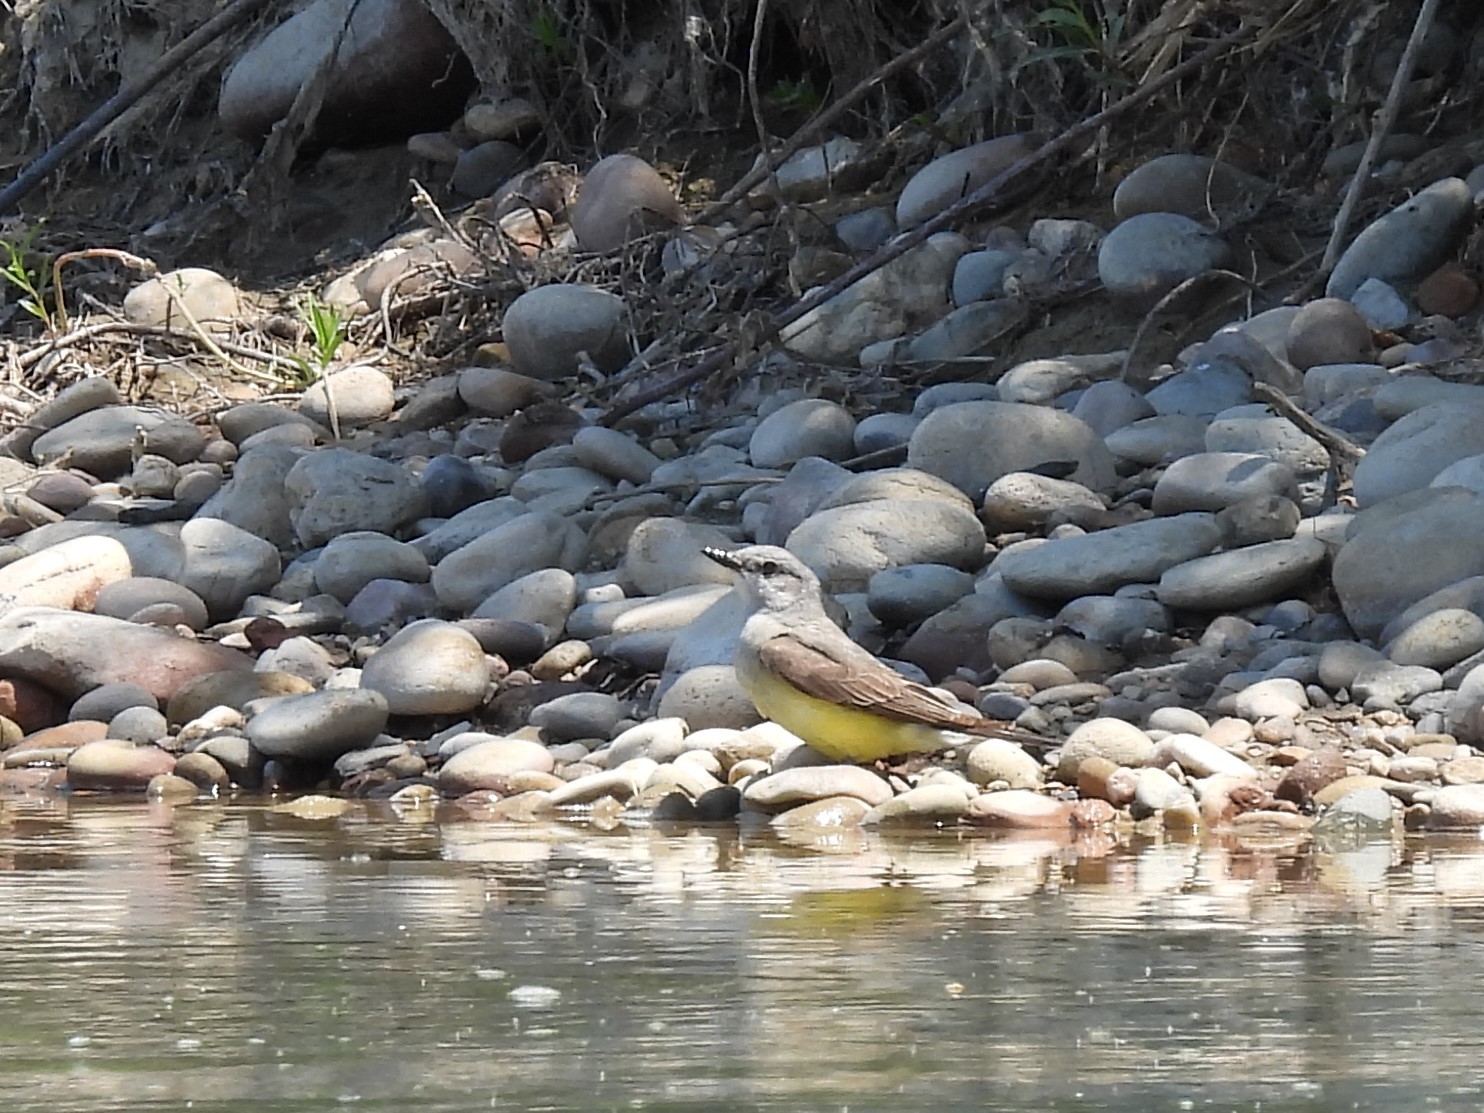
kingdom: Animalia
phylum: Chordata
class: Aves
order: Passeriformes
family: Tyrannidae
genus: Tyrannus
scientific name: Tyrannus verticalis
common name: Western kingbird
